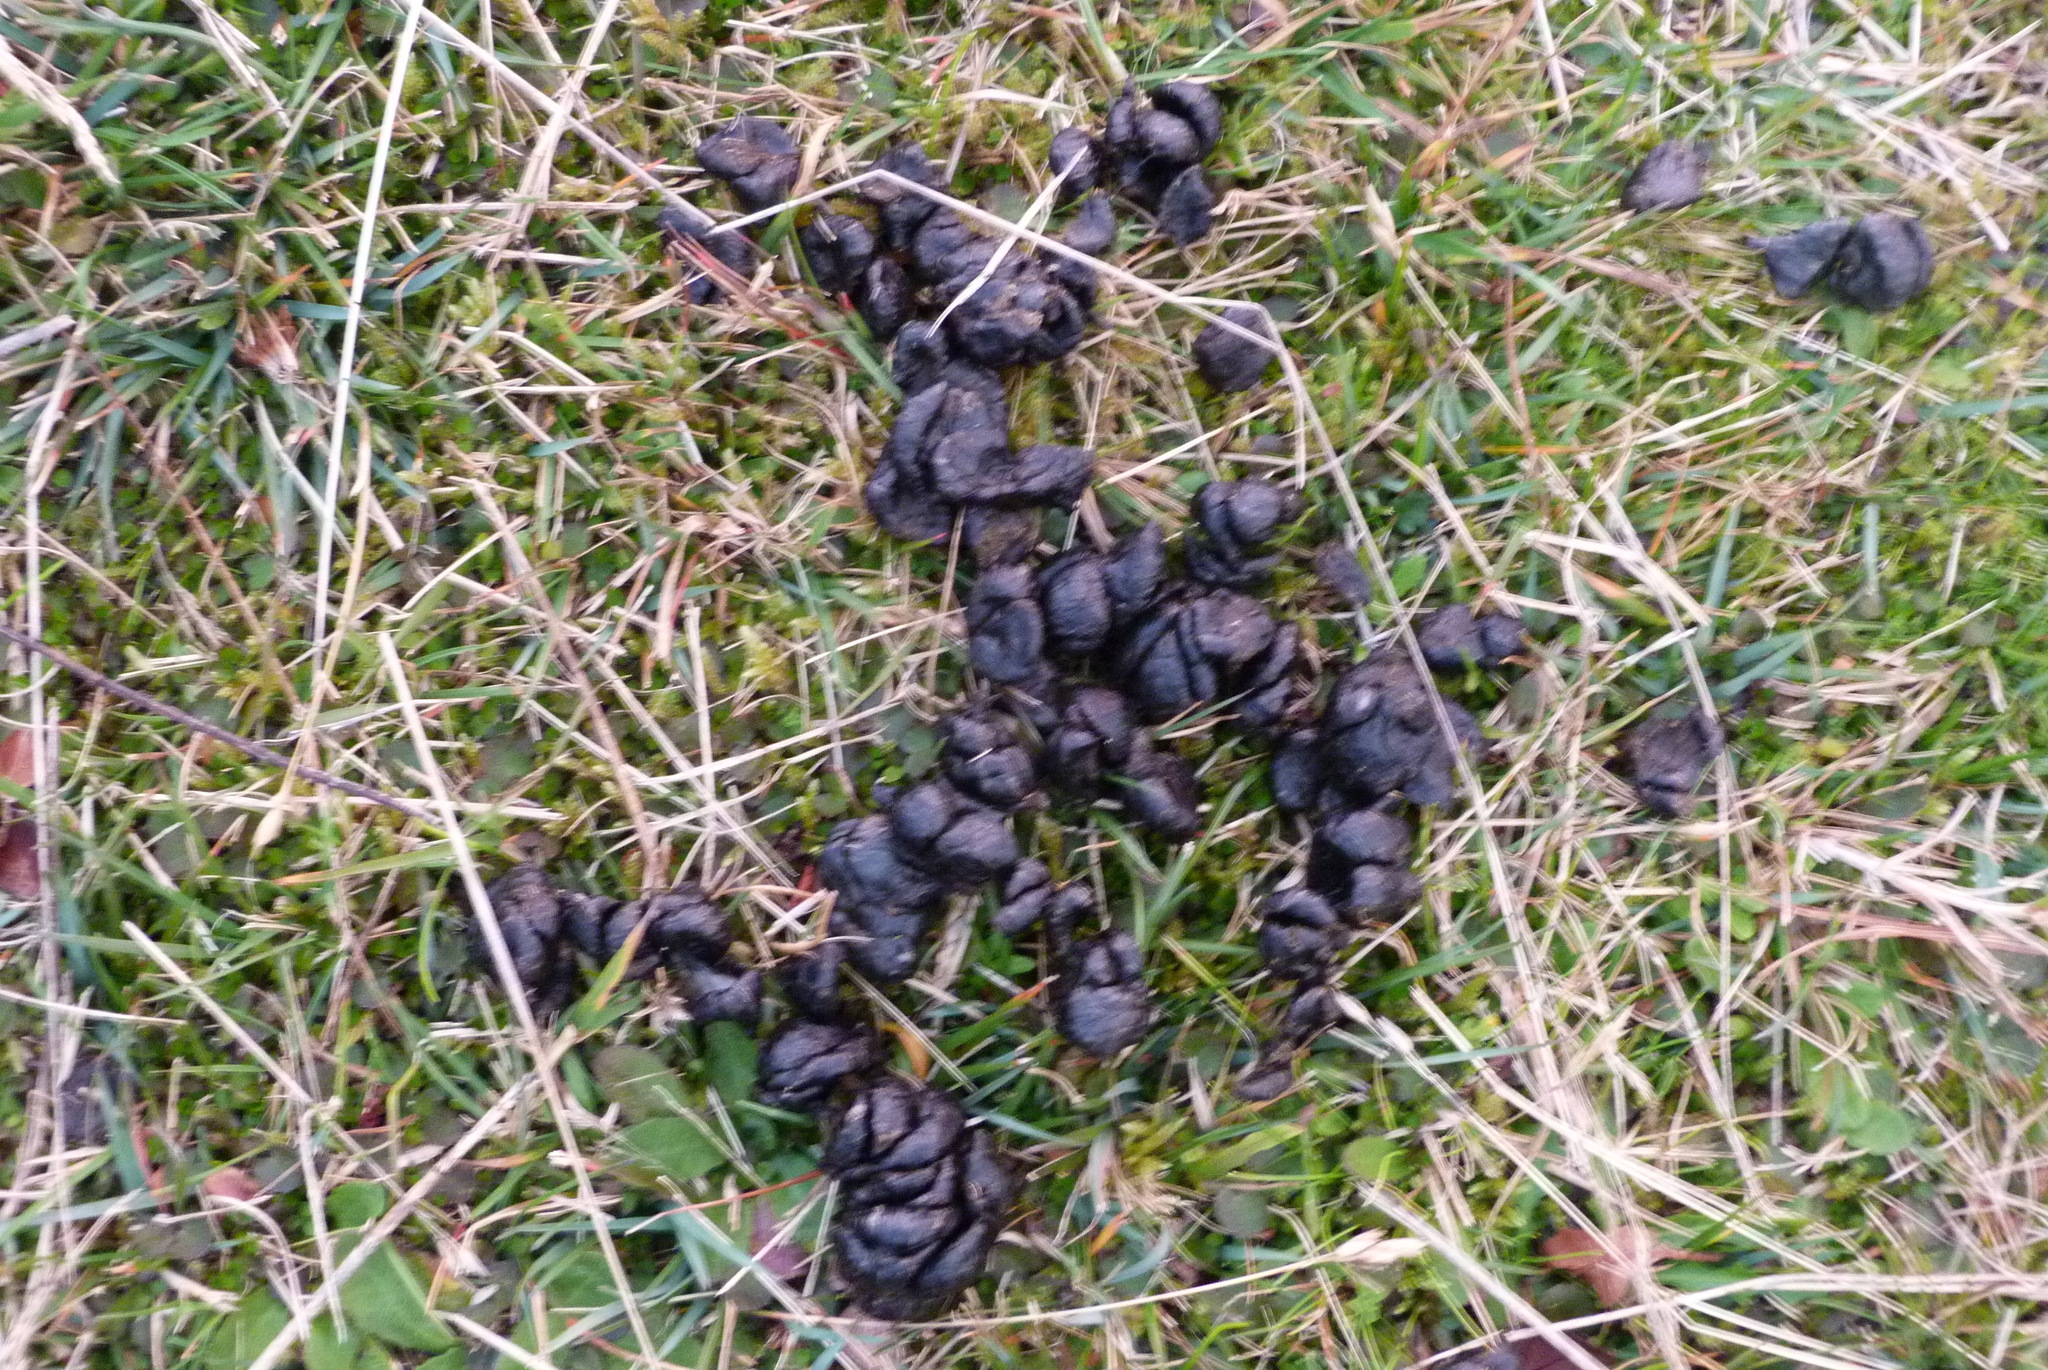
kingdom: Animalia
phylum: Chordata
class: Mammalia
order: Artiodactyla
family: Cervidae
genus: Odocoileus
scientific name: Odocoileus virginianus
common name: White-tailed deer
